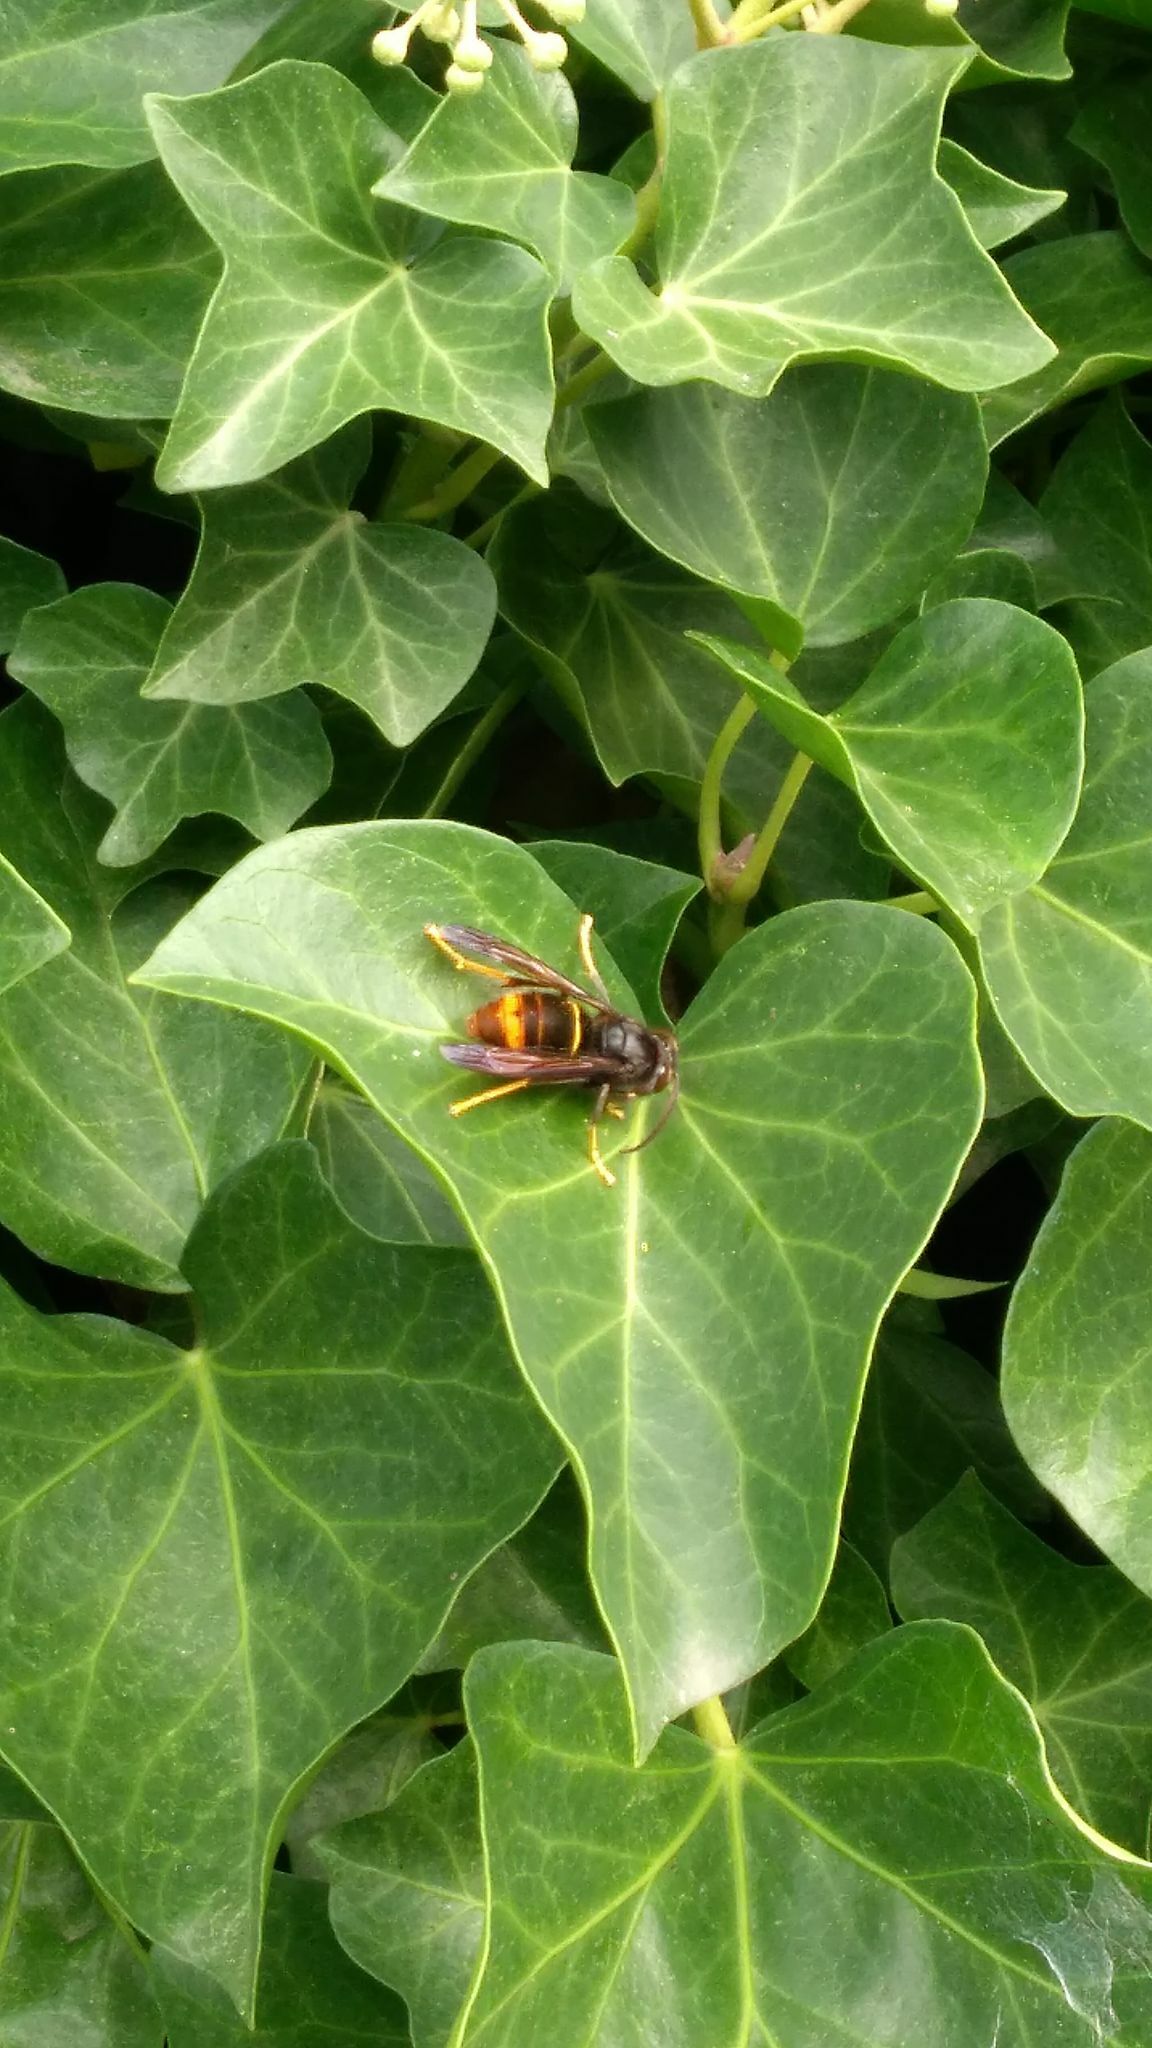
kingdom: Animalia
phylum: Arthropoda
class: Insecta
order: Hymenoptera
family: Vespidae
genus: Vespa
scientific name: Vespa velutina
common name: Asian hornet
